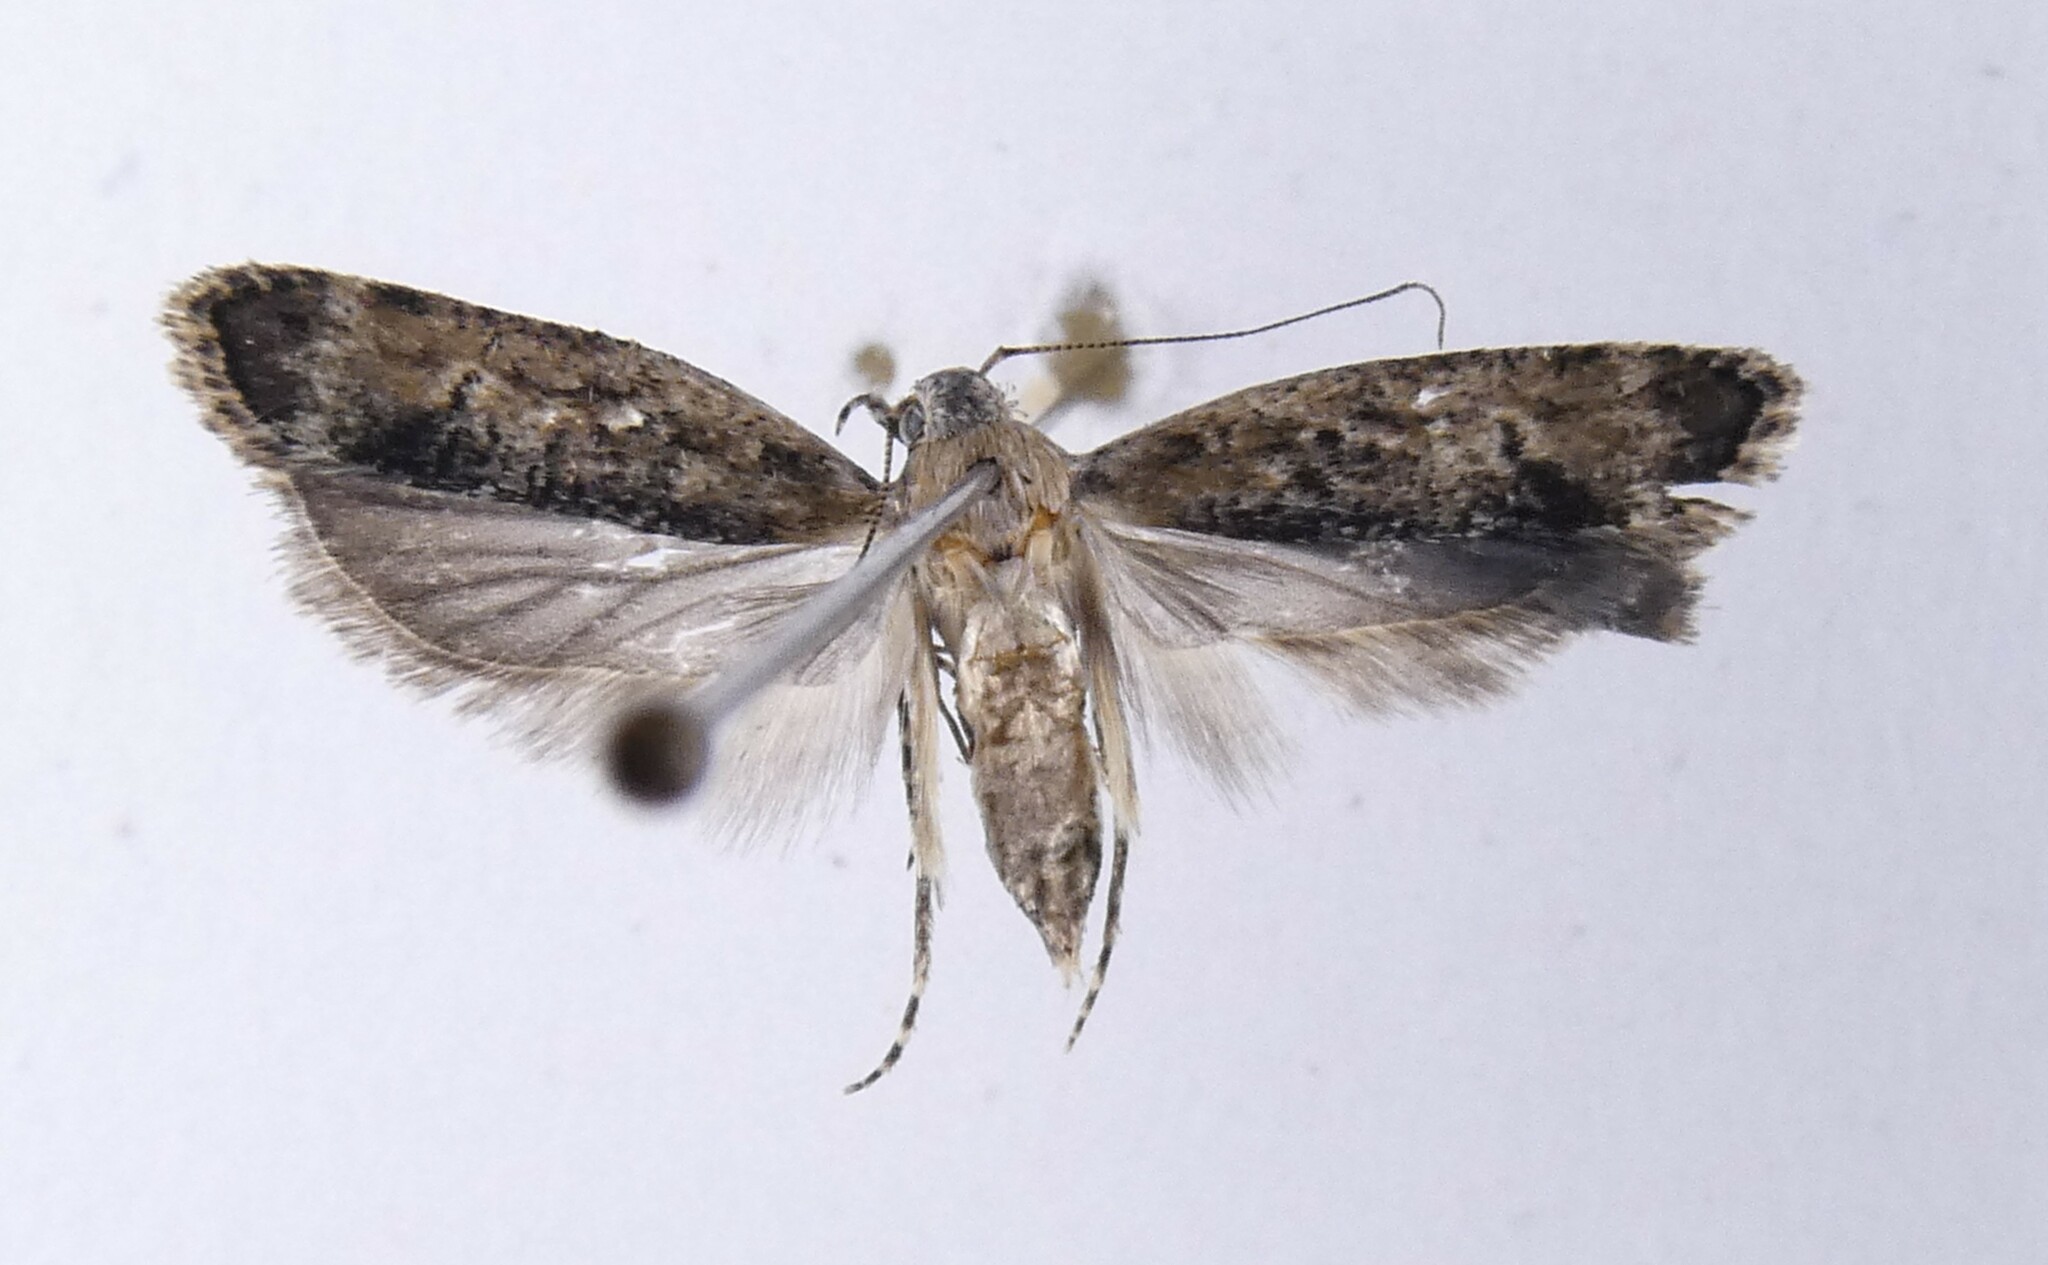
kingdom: Animalia
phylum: Arthropoda
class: Insecta
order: Lepidoptera
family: Gelechiidae
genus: Anisoplaca
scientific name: Anisoplaca achyrota
